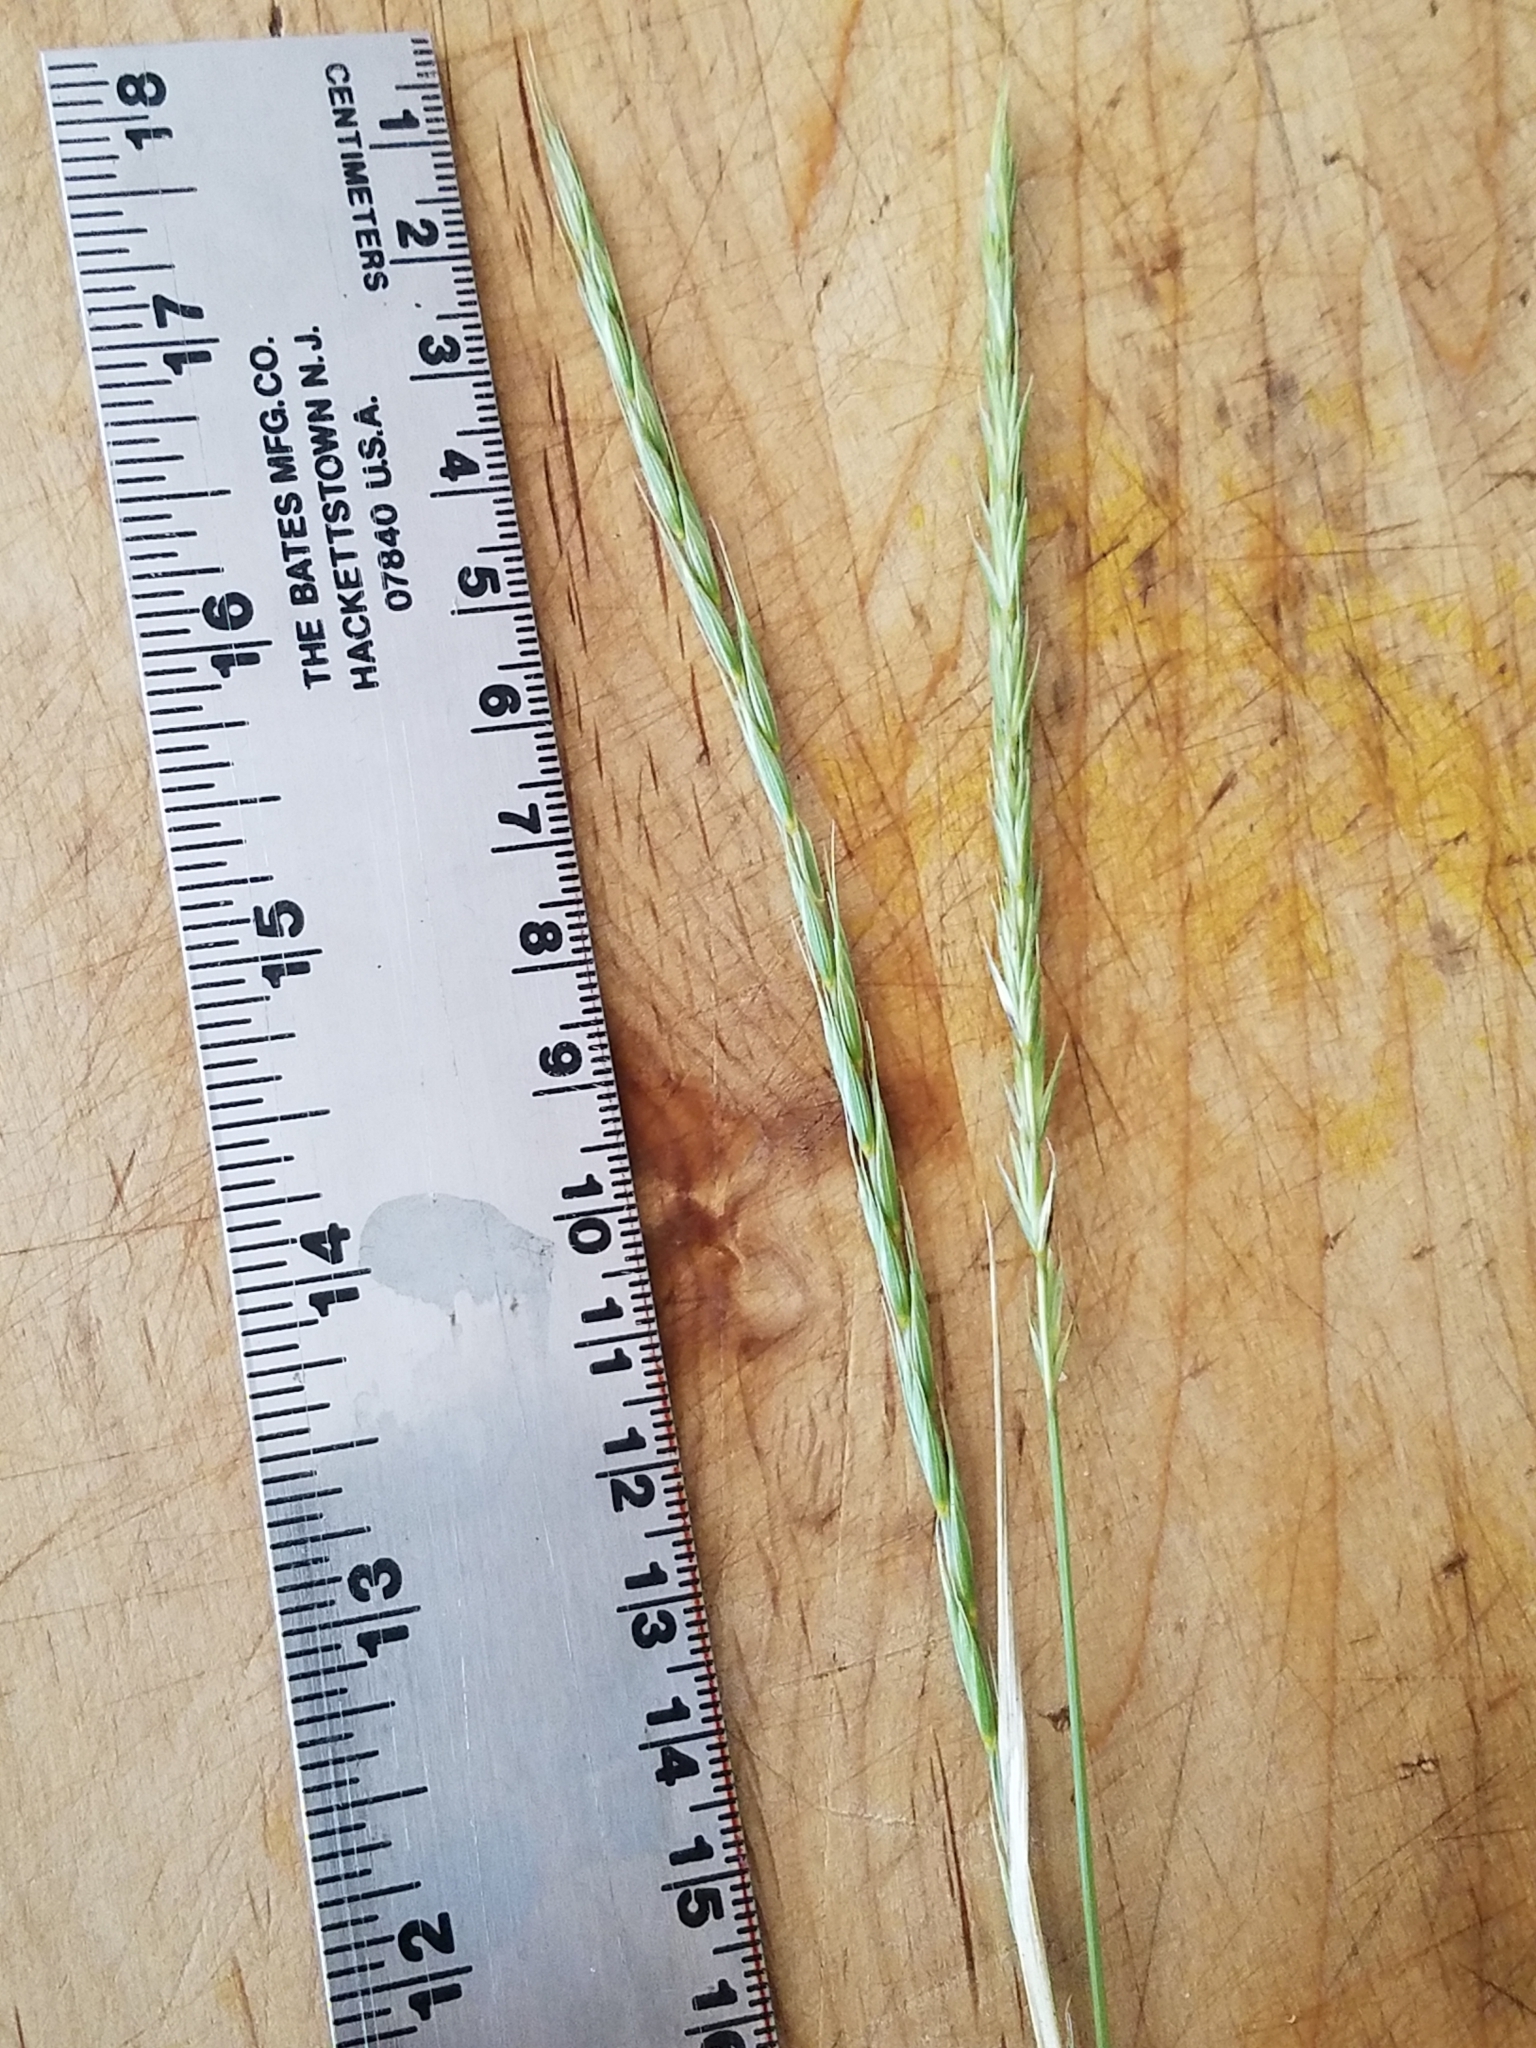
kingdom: Plantae
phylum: Tracheophyta
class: Liliopsida
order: Poales
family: Poaceae
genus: Elymus
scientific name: Elymus violaceus
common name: Arctic wheatgrass
